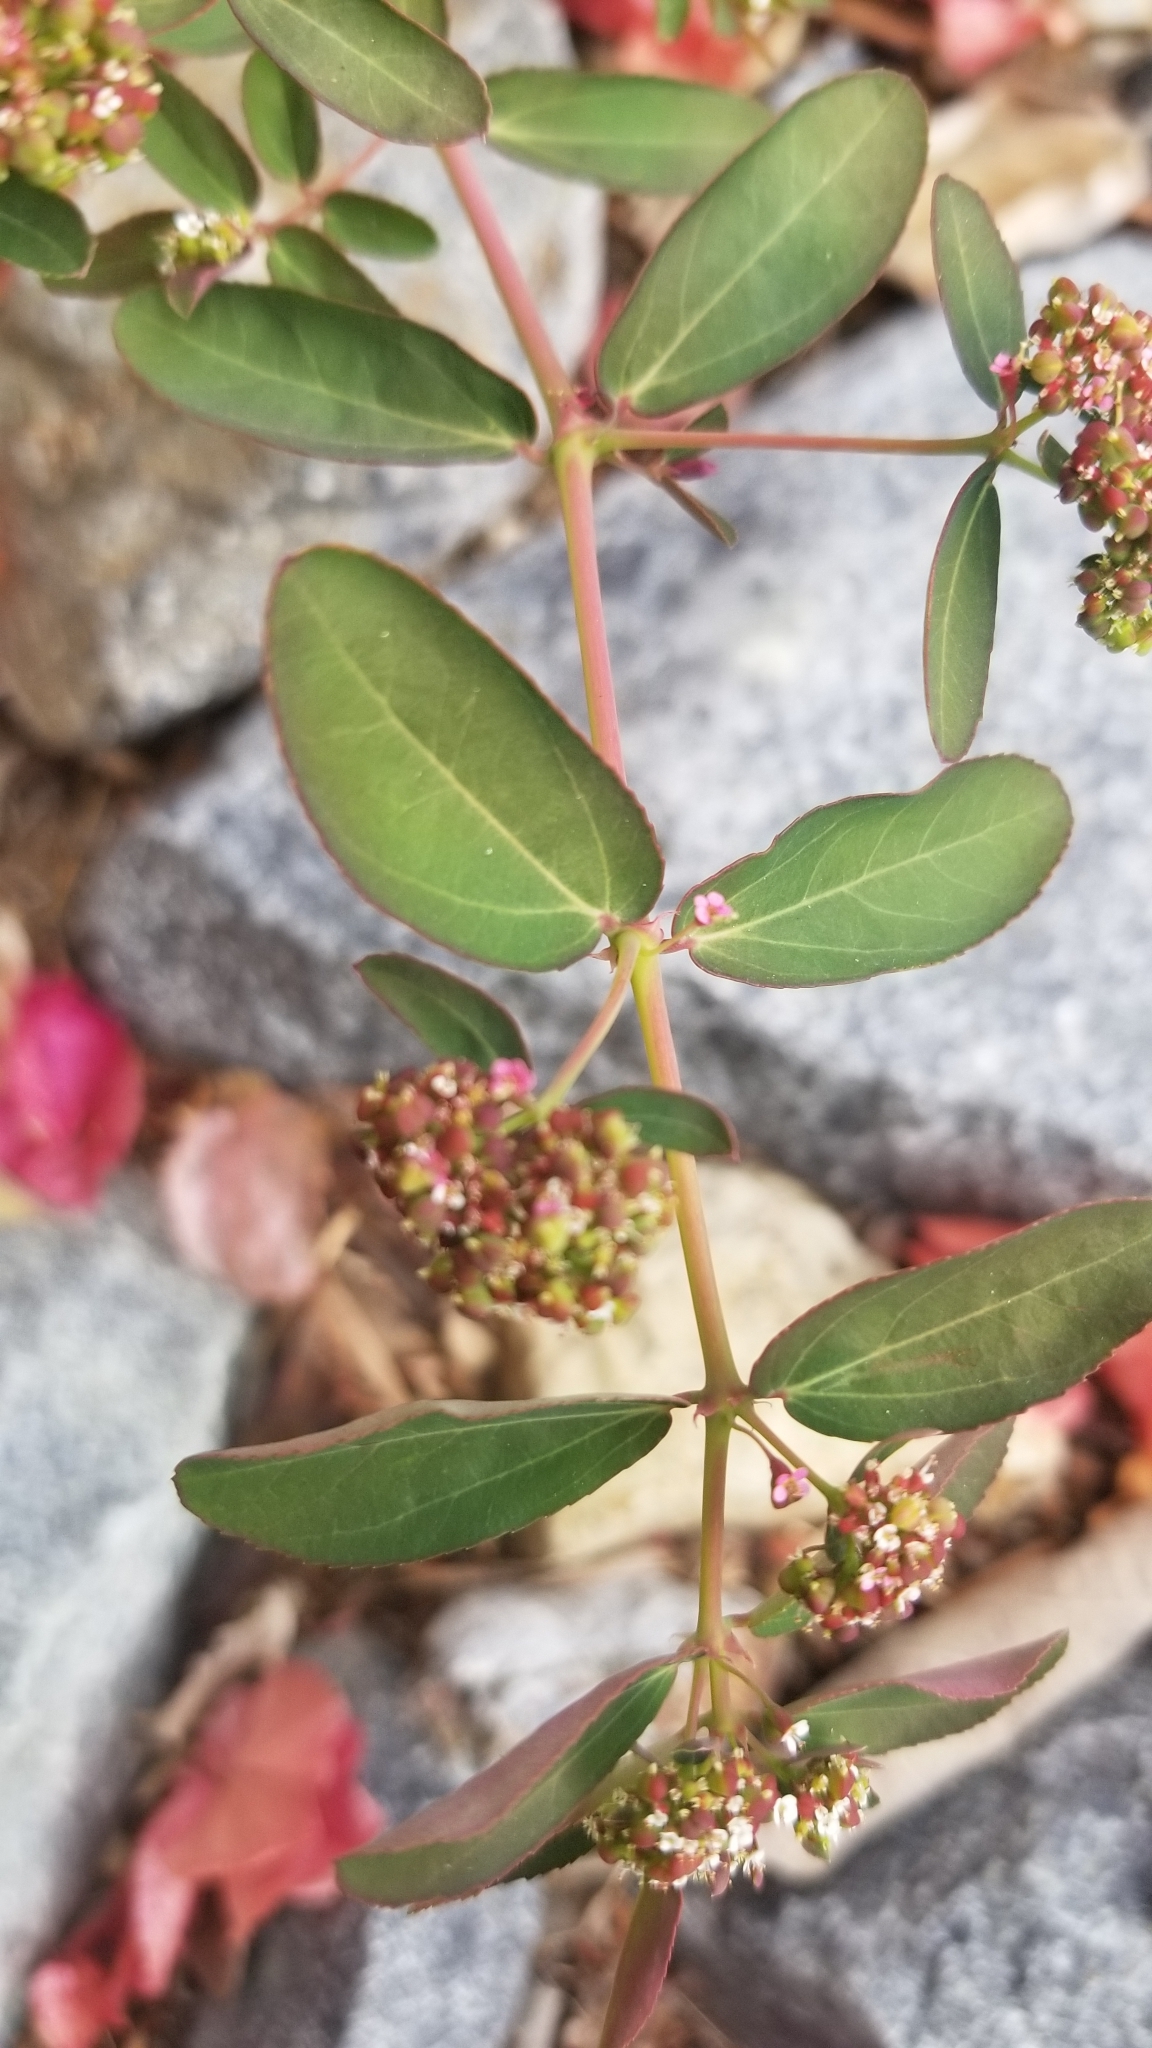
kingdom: Plantae
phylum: Tracheophyta
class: Magnoliopsida
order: Malpighiales
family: Euphorbiaceae
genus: Euphorbia
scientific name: Euphorbia hypericifolia
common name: Graceful sandmat
